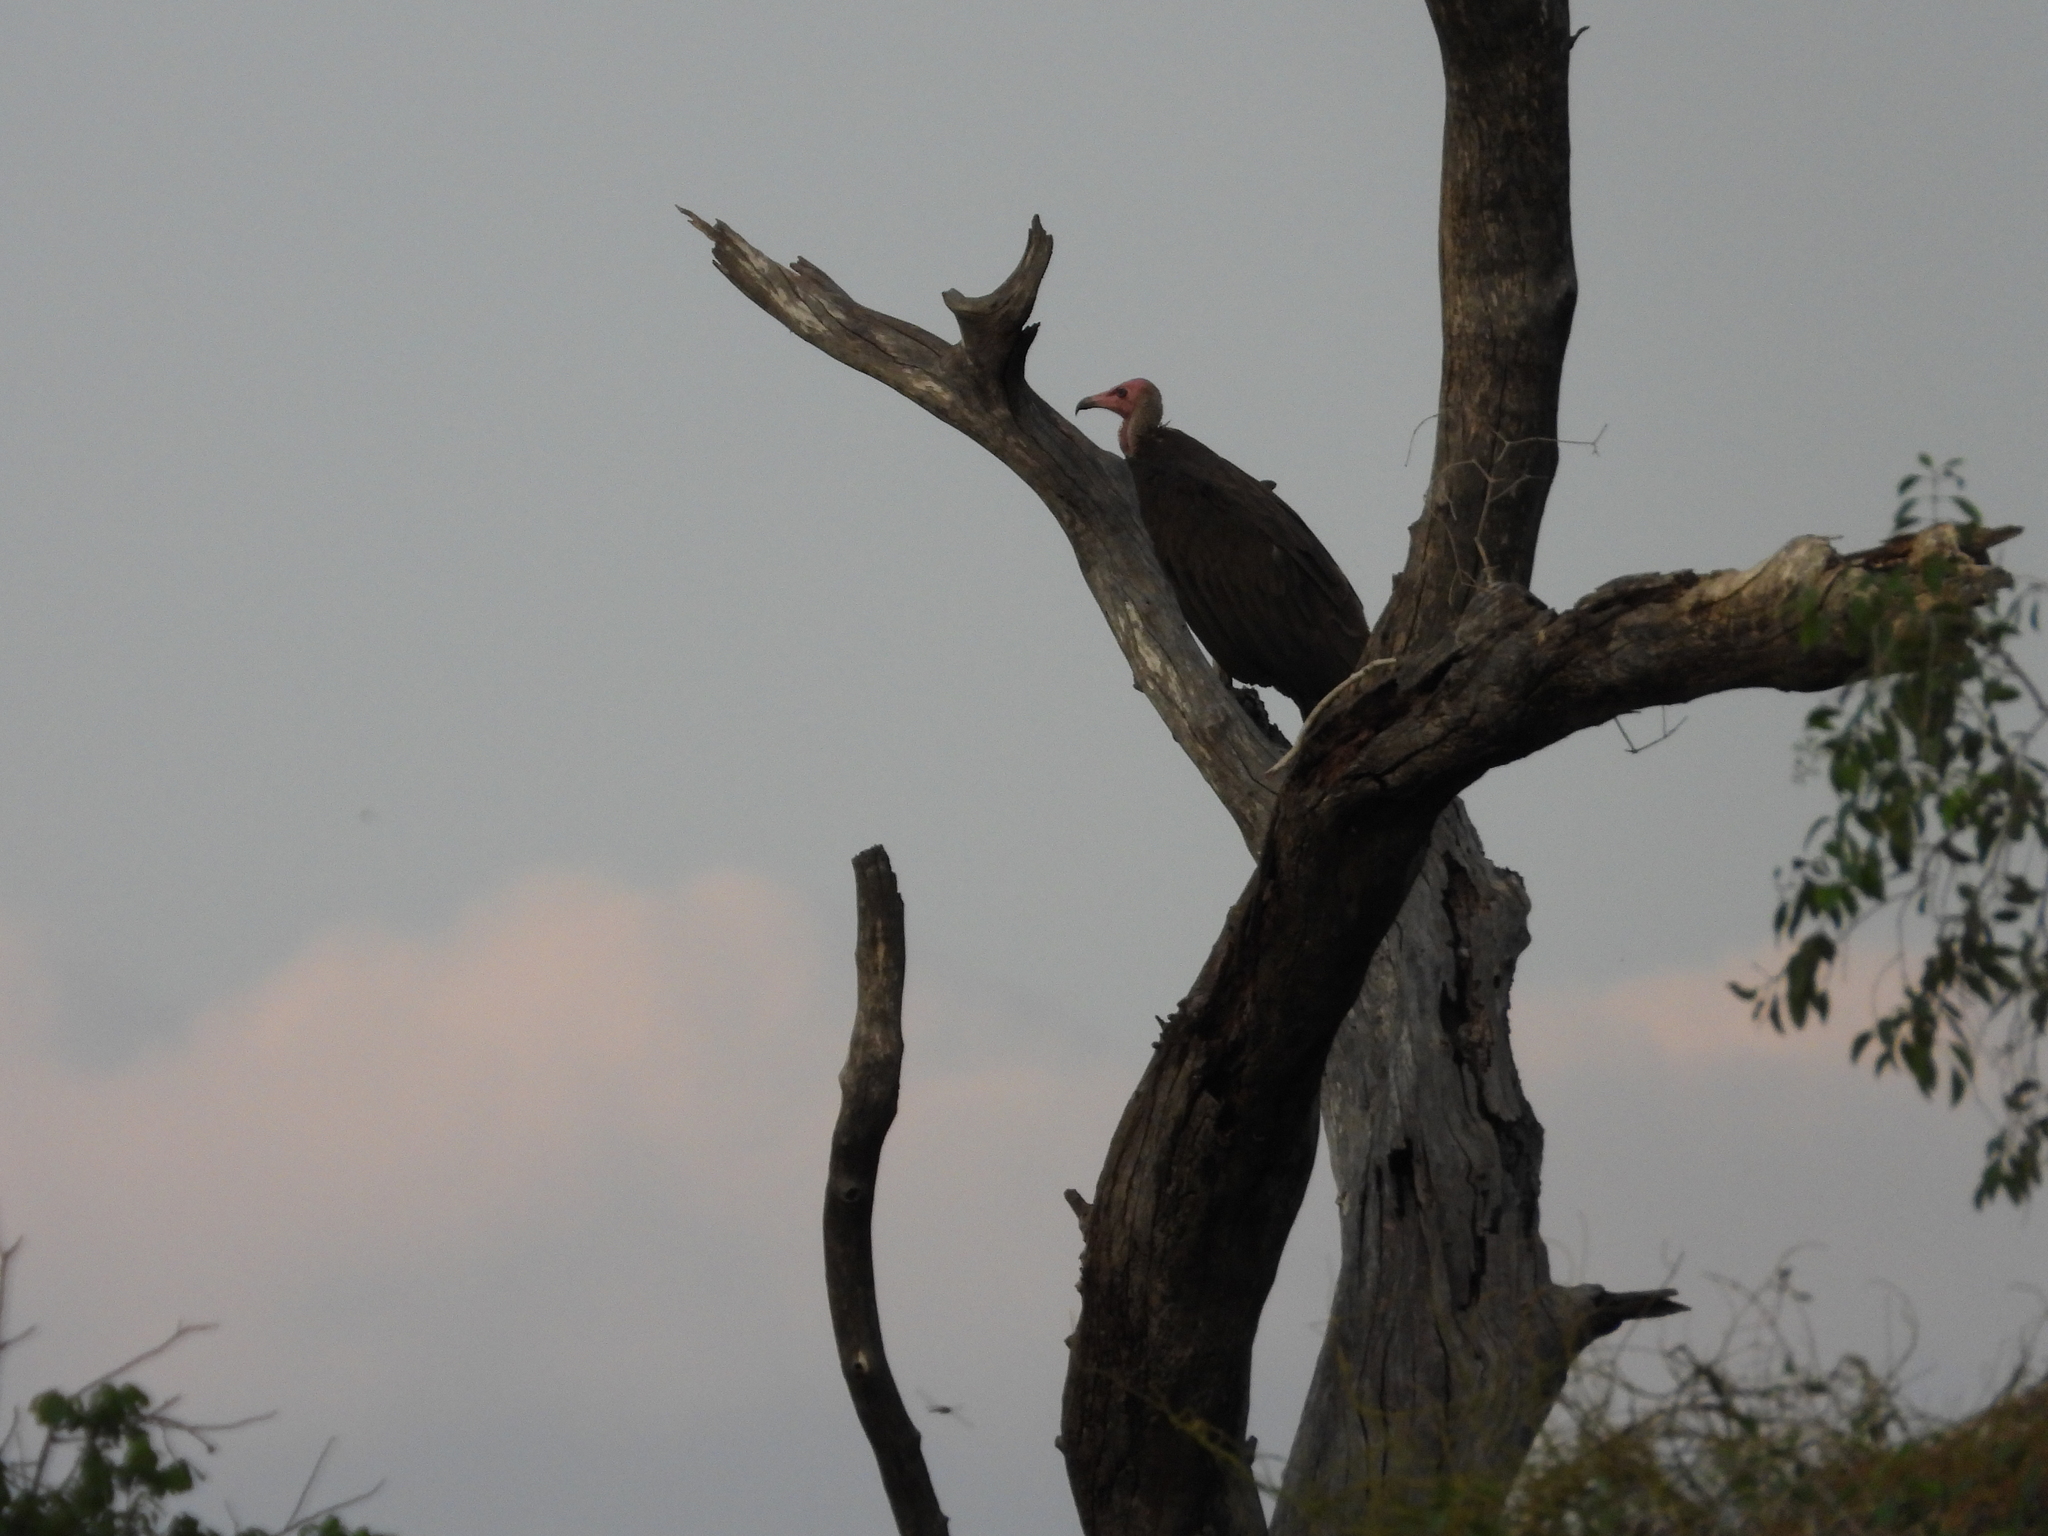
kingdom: Animalia
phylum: Chordata
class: Aves
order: Accipitriformes
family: Accipitridae
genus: Necrosyrtes
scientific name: Necrosyrtes monachus
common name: Hooded vulture
